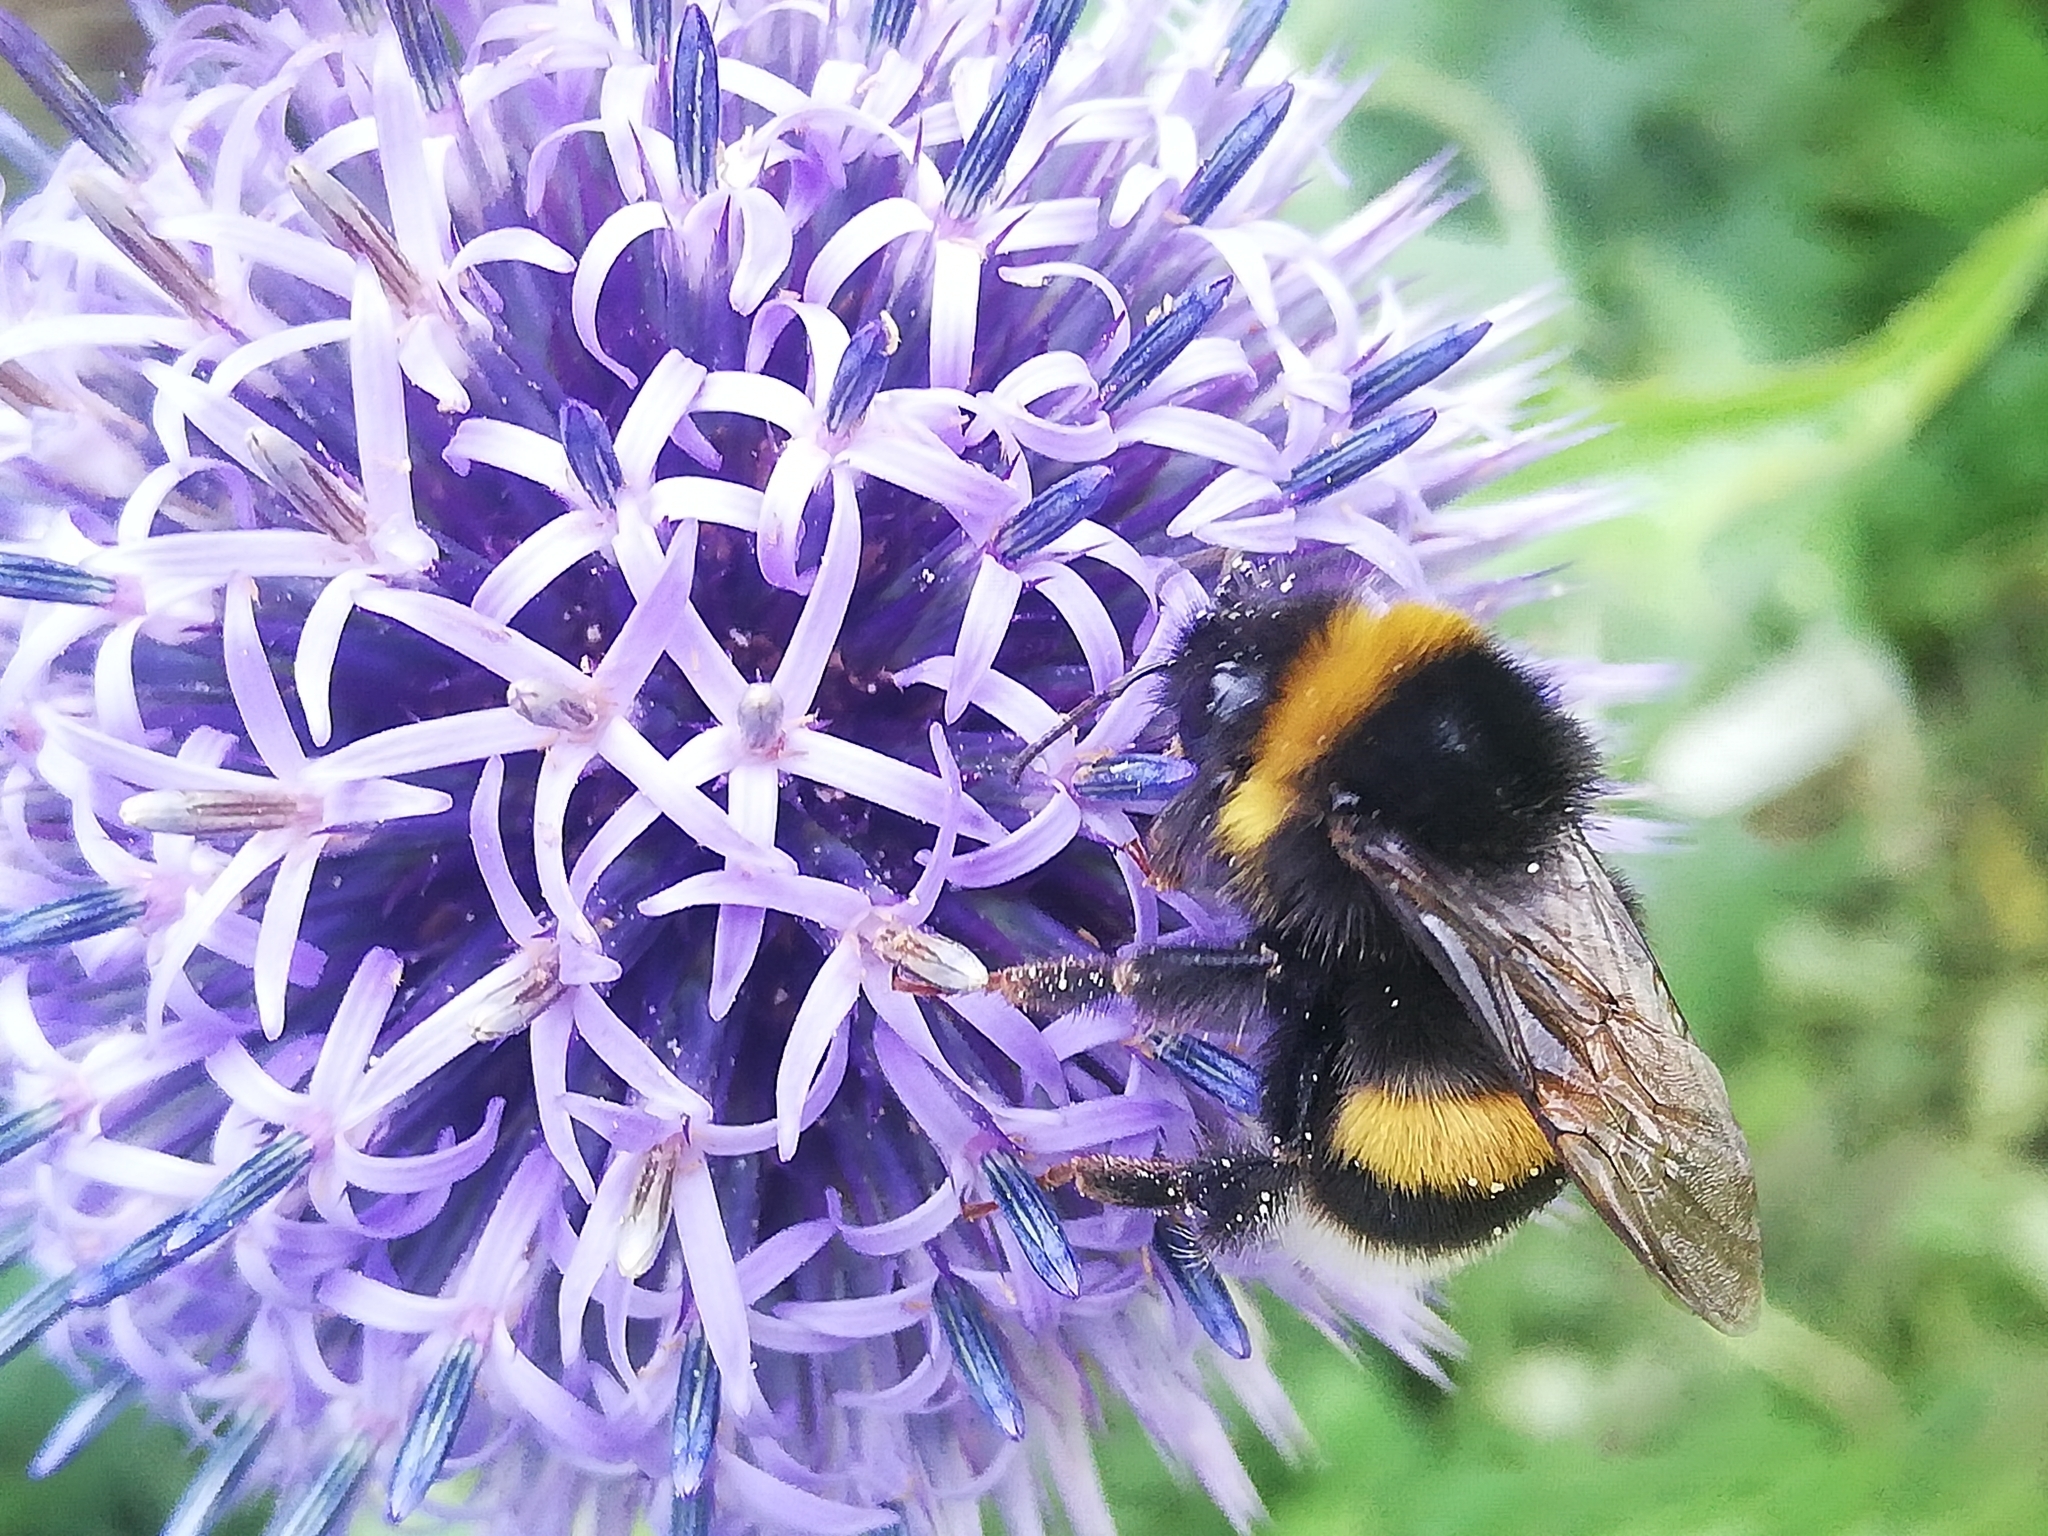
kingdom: Animalia
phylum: Arthropoda
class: Insecta
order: Hymenoptera
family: Apidae
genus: Bombus
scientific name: Bombus terrestris
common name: Buff-tailed bumblebee
